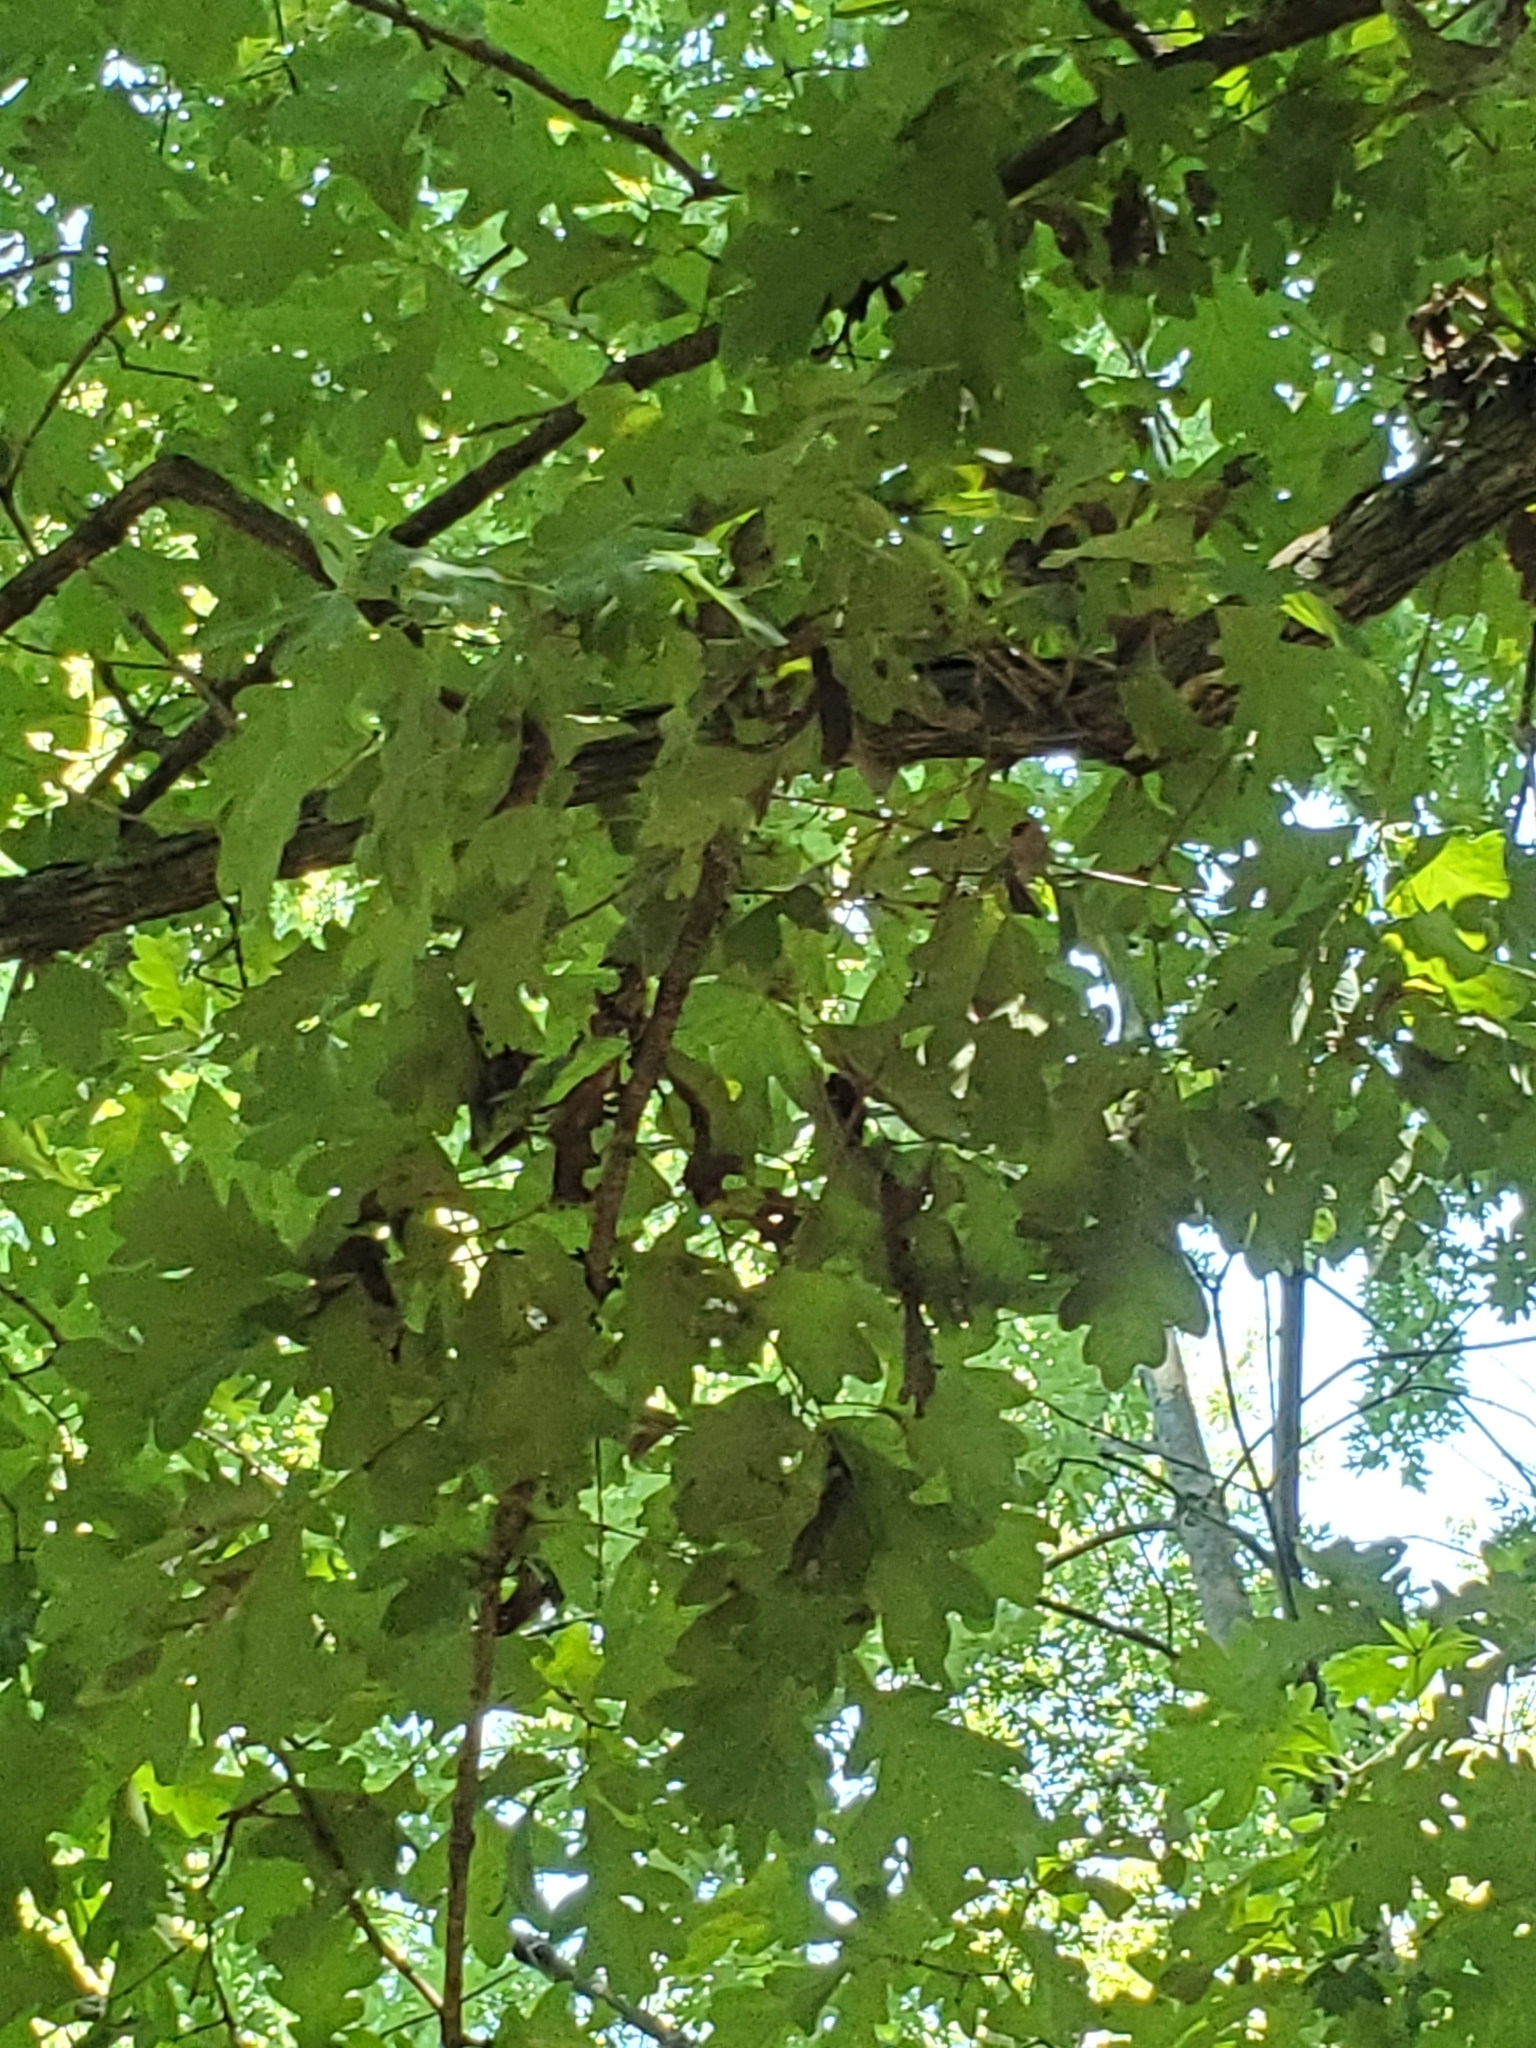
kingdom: Plantae
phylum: Tracheophyta
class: Magnoliopsida
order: Fagales
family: Fagaceae
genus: Quercus
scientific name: Quercus alba
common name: White oak
